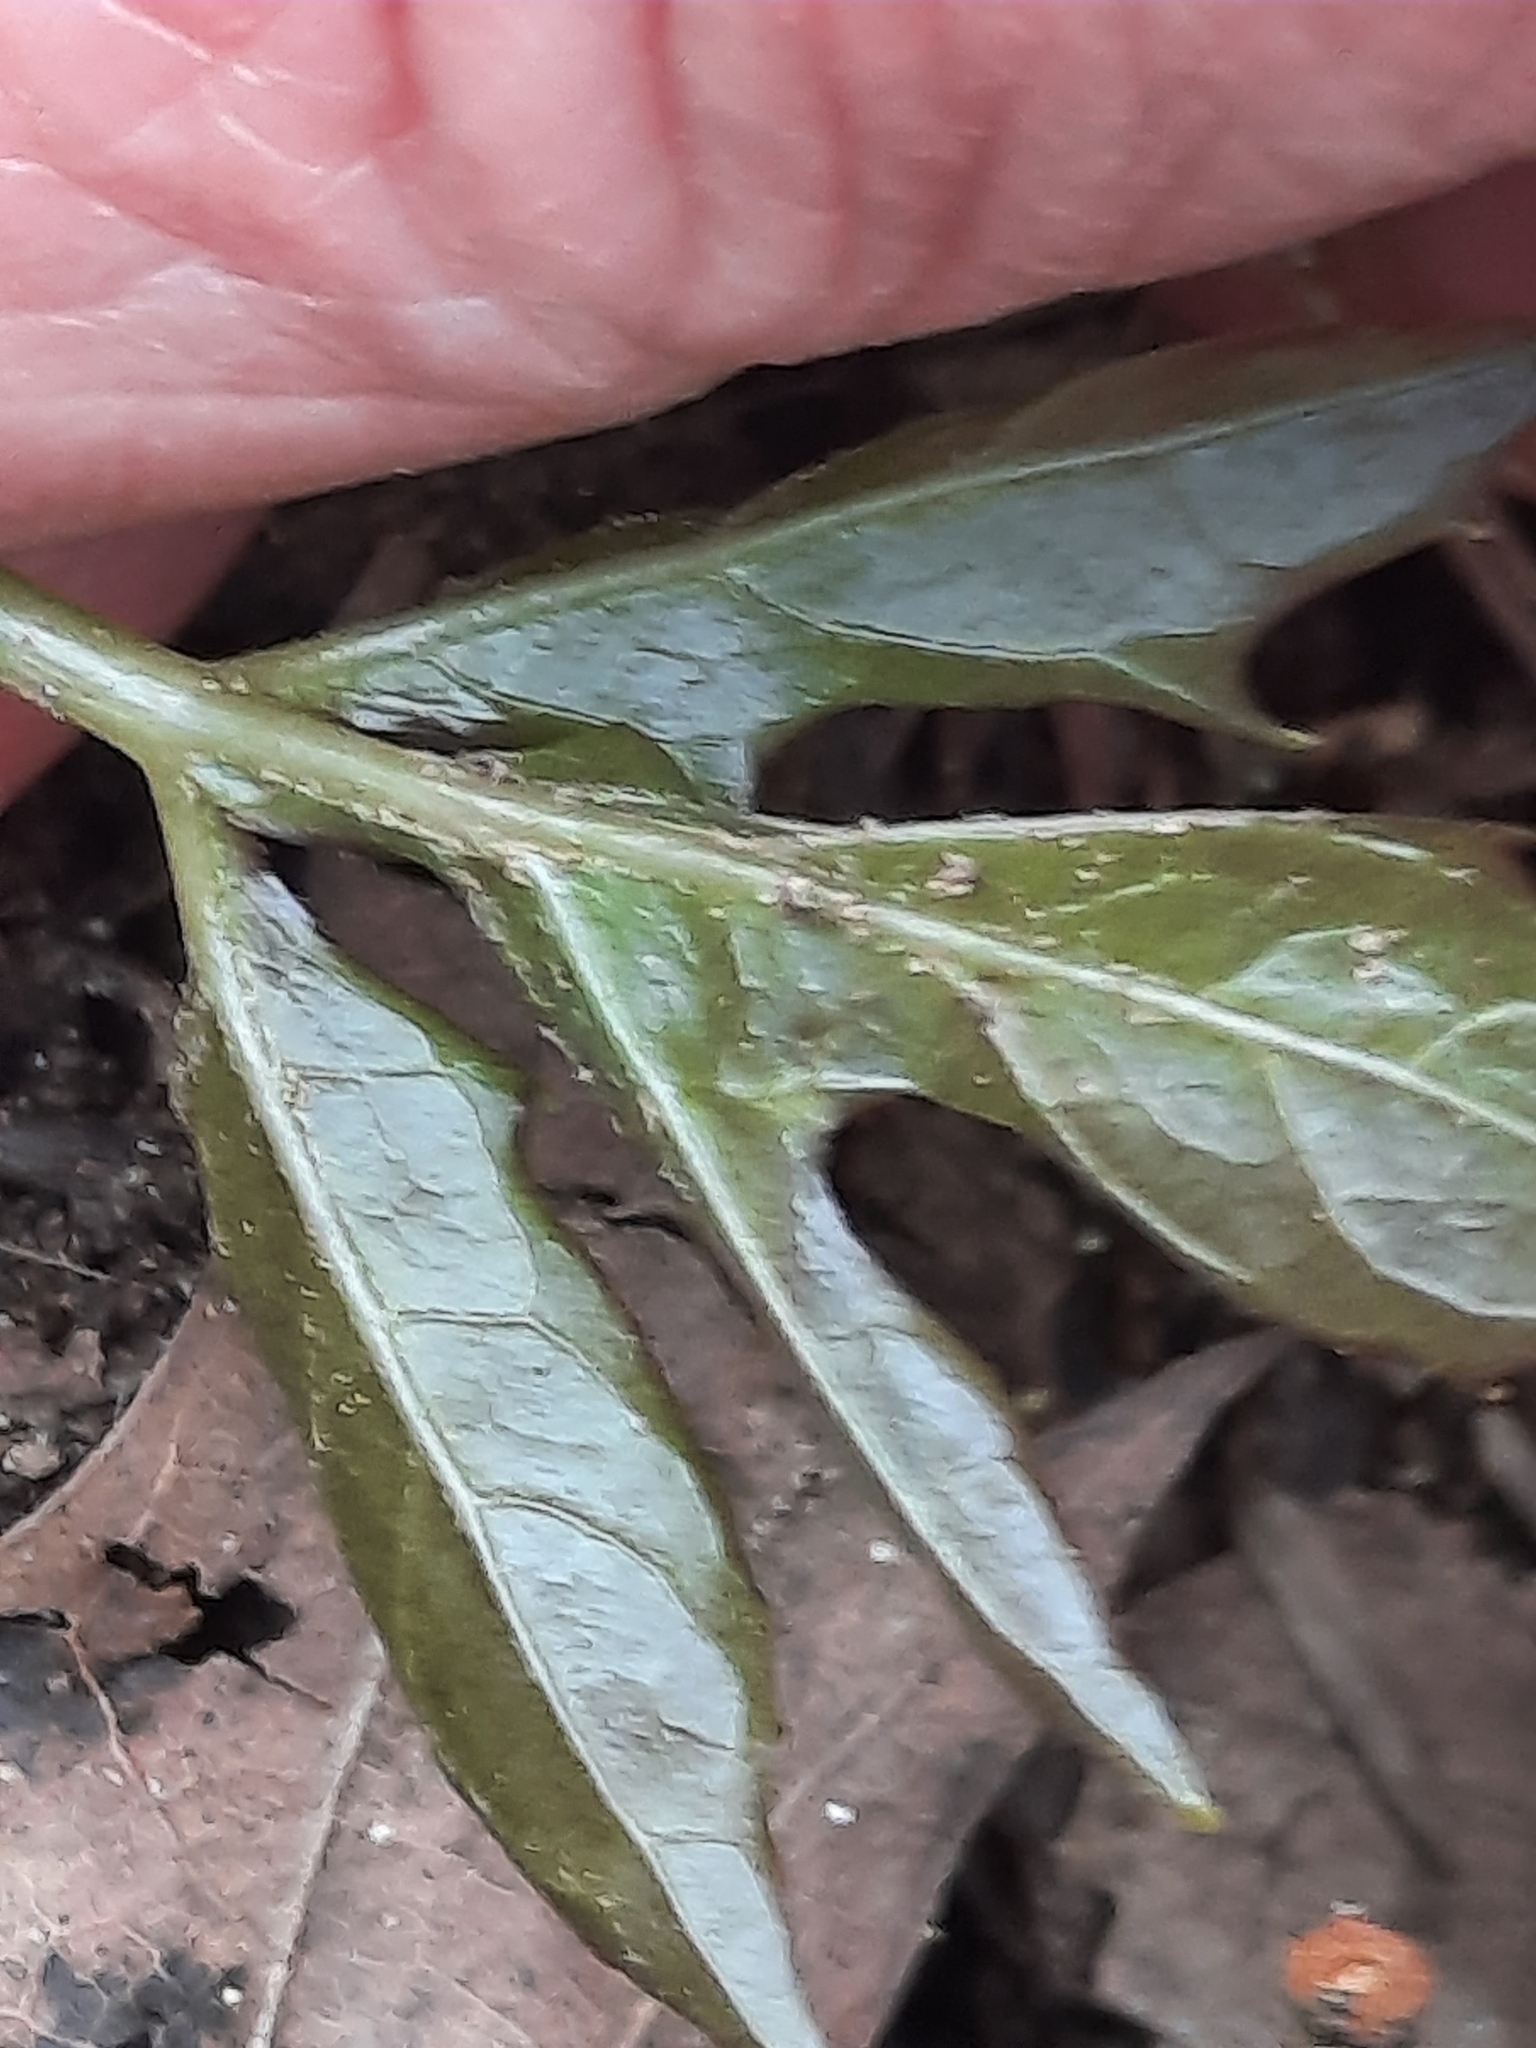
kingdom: Plantae
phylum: Tracheophyta
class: Magnoliopsida
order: Asterales
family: Asteraceae
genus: Nabalus
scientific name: Nabalus
